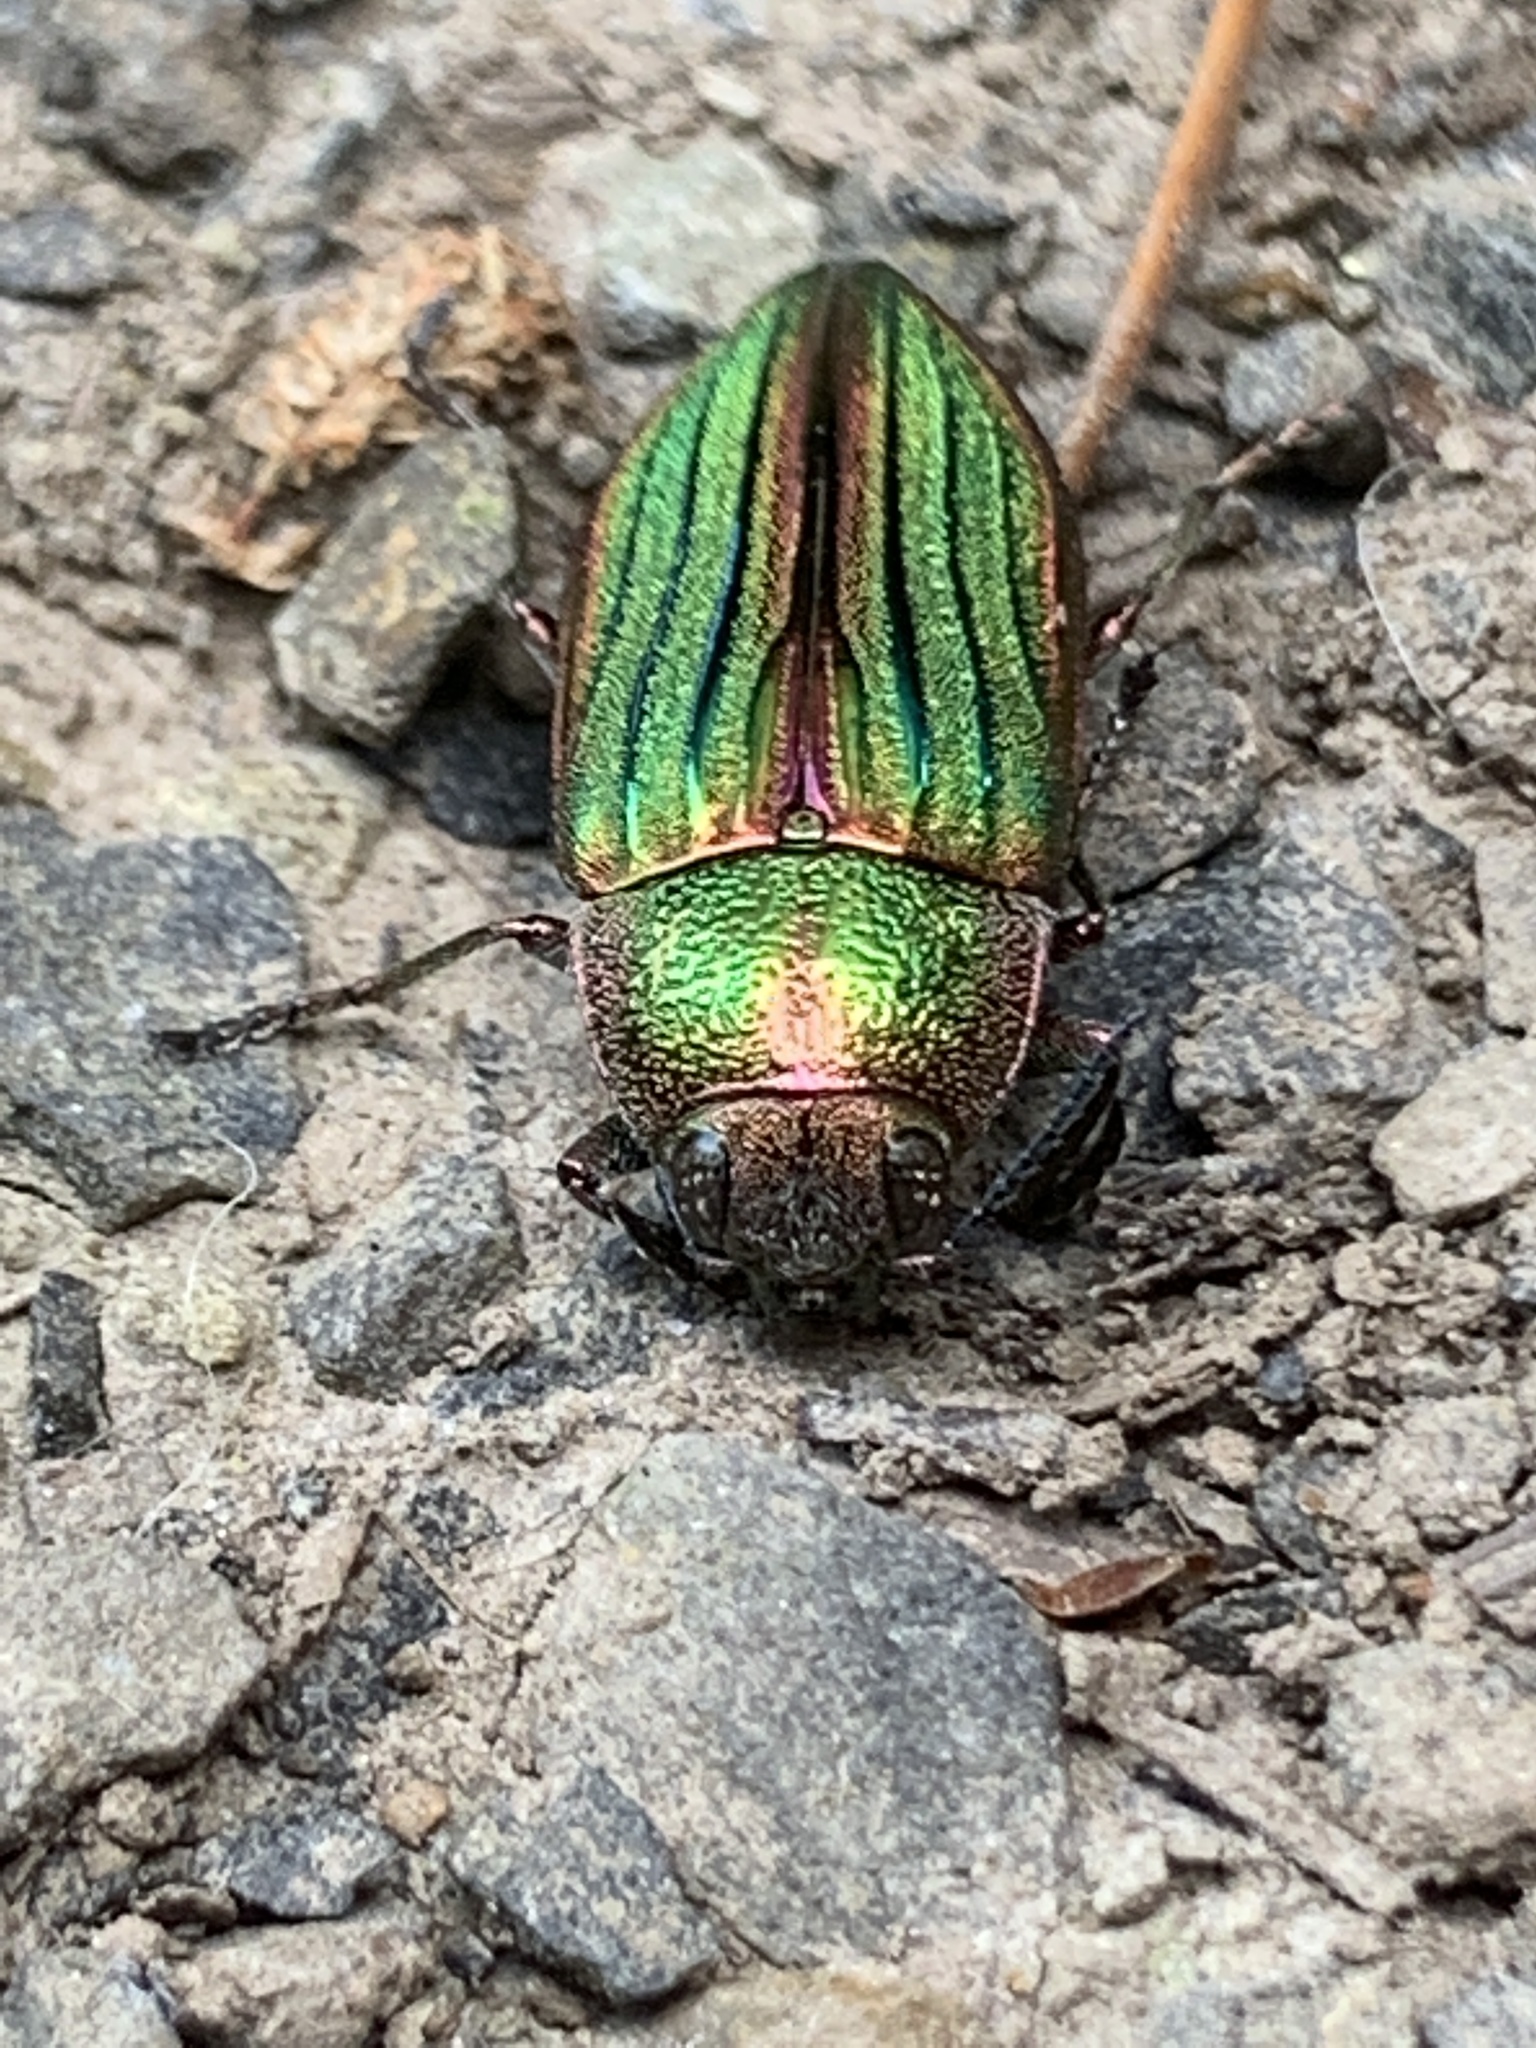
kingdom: Animalia
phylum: Arthropoda
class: Insecta
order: Coleoptera
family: Buprestidae
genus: Buprestis
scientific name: Buprestis aurulenta
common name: Golden buprestid
